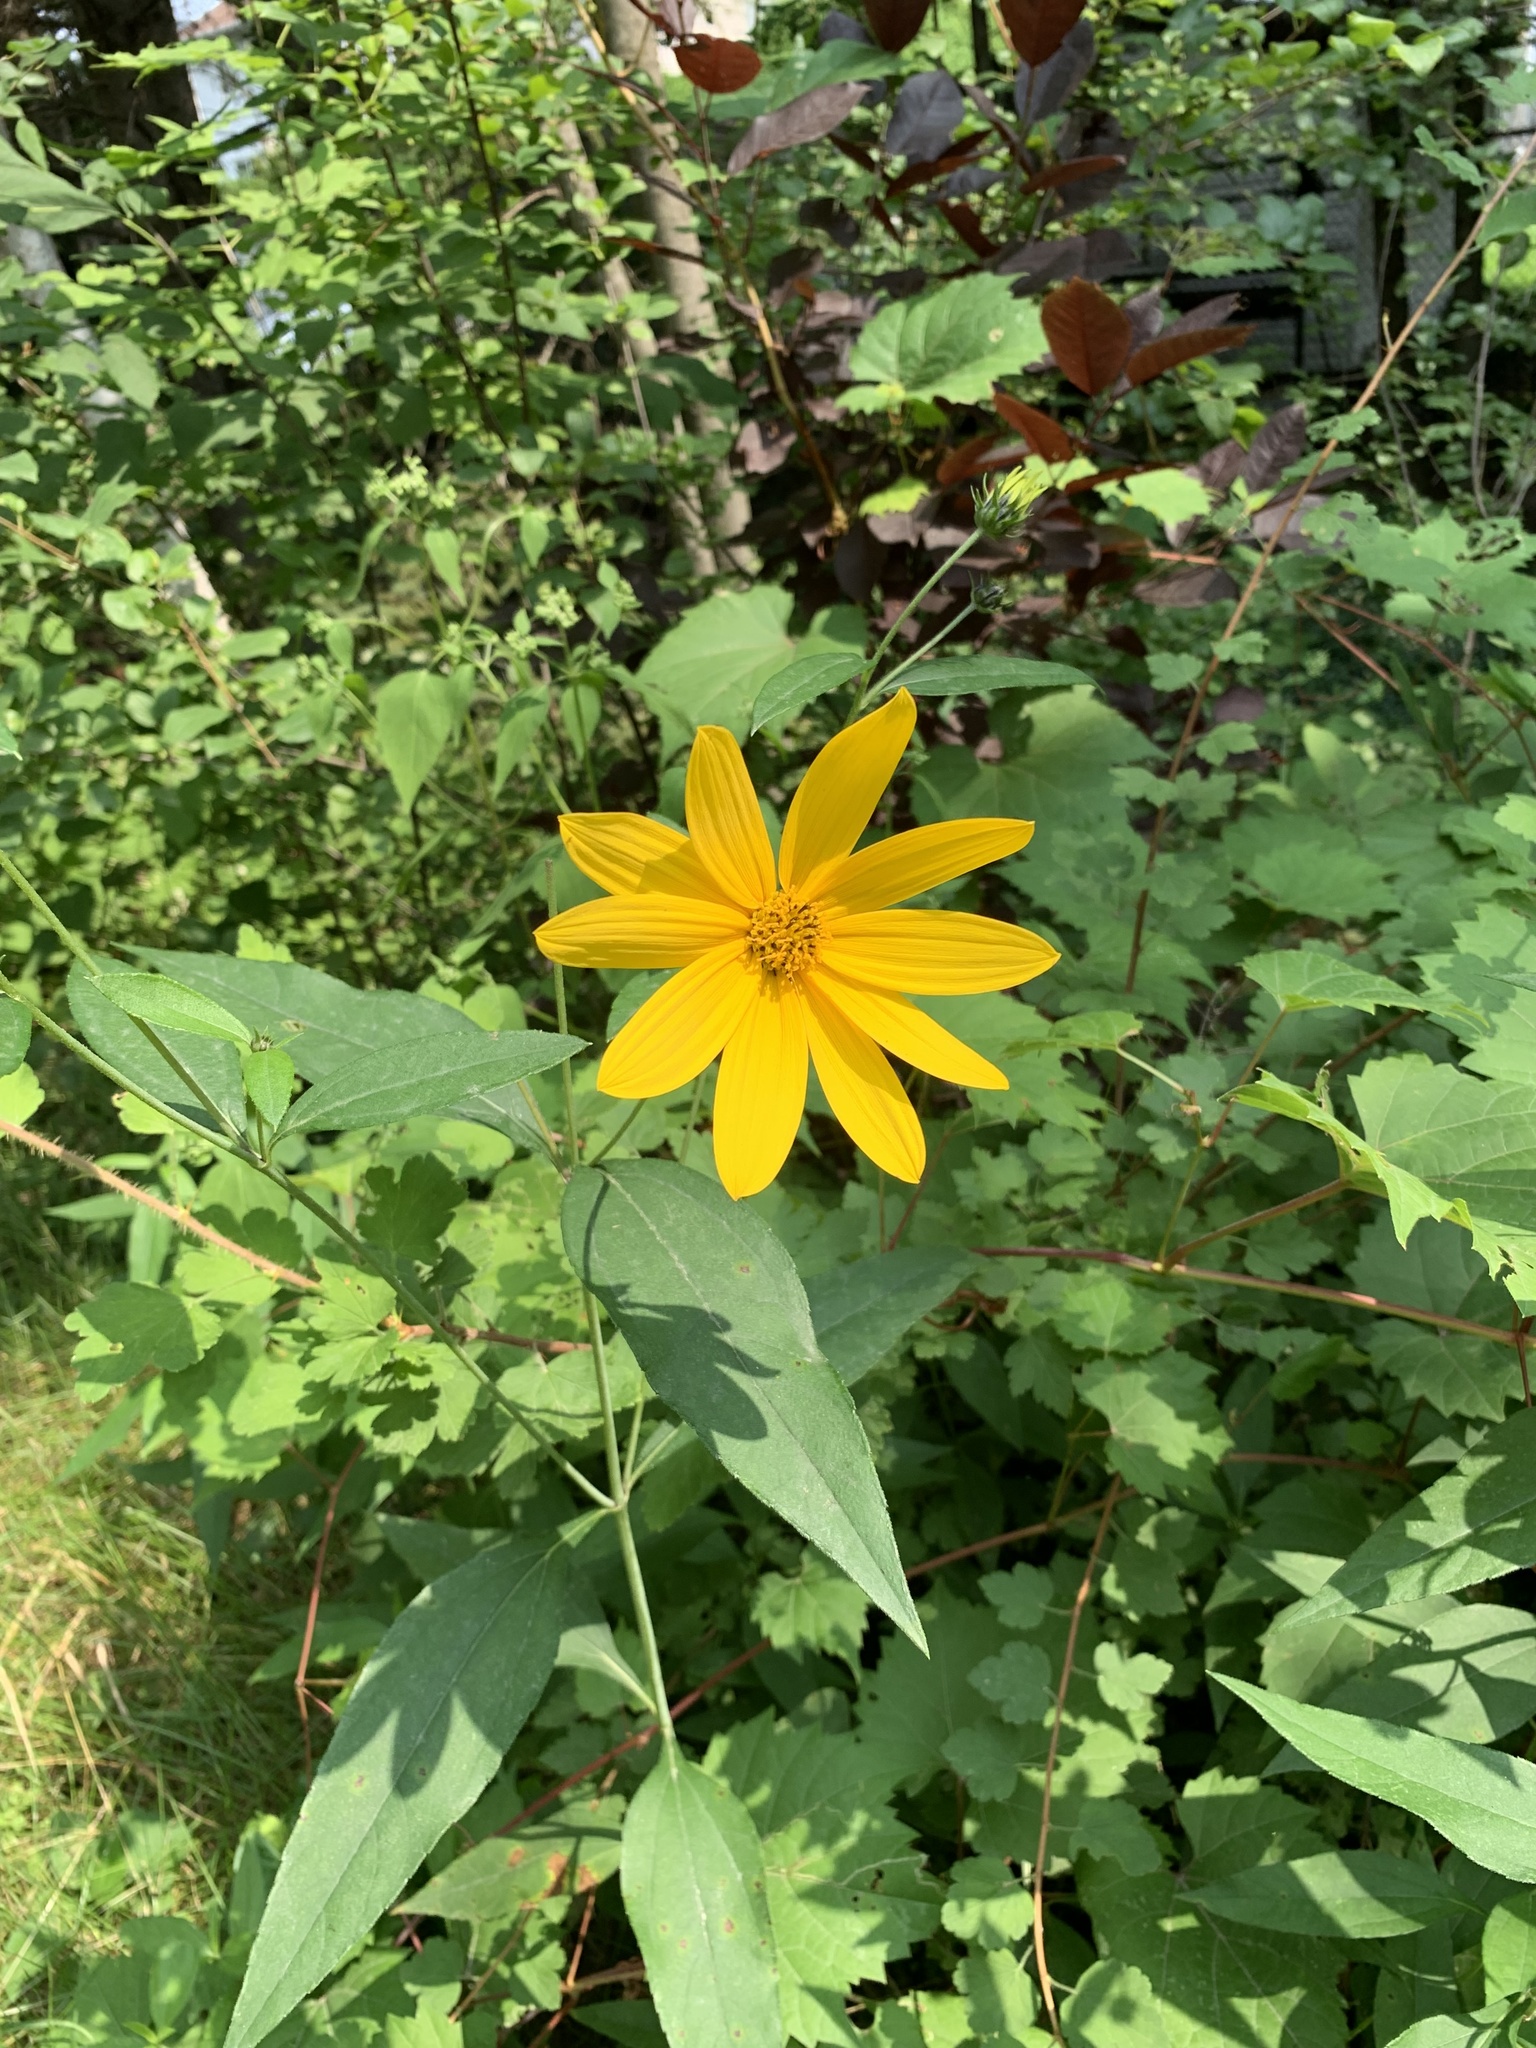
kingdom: Plantae
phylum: Tracheophyta
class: Magnoliopsida
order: Asterales
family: Asteraceae
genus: Helianthus
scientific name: Helianthus divaricatus
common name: Divergent sunflower
